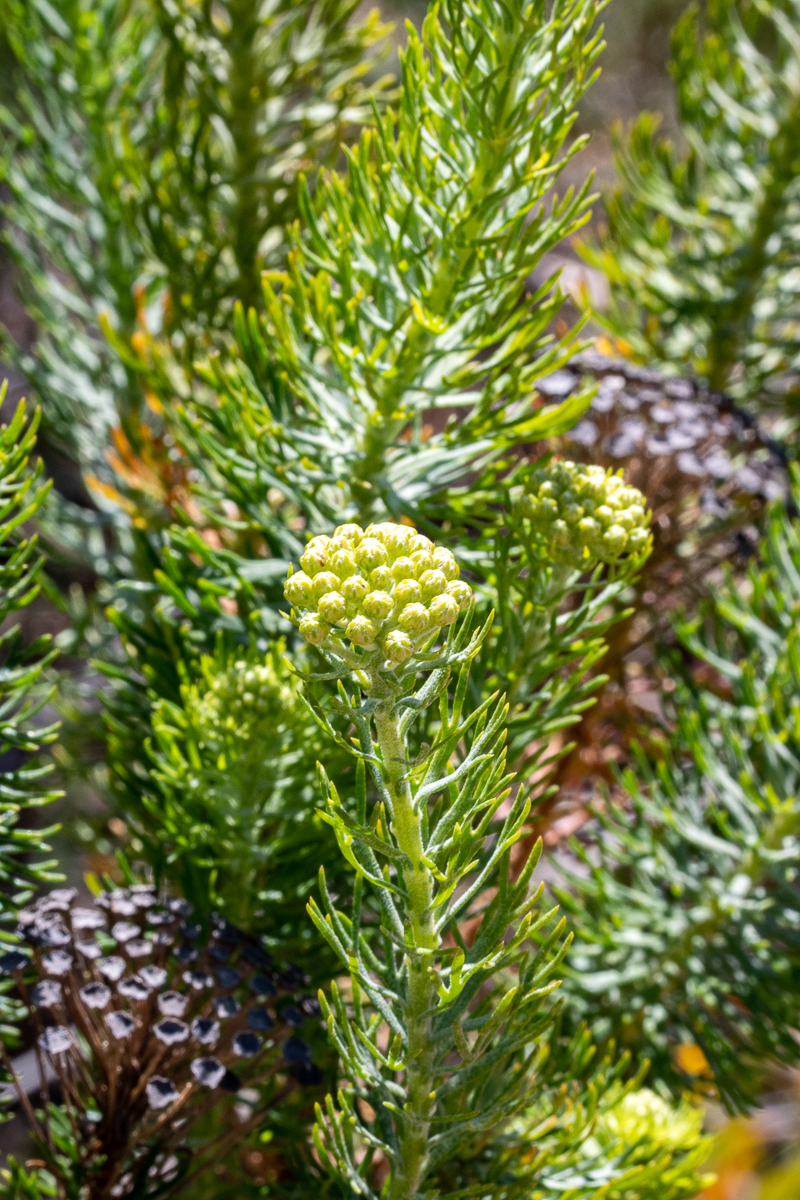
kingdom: Plantae
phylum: Tracheophyta
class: Magnoliopsida
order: Asterales
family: Asteraceae
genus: Athanasia
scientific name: Athanasia crithmifolia
